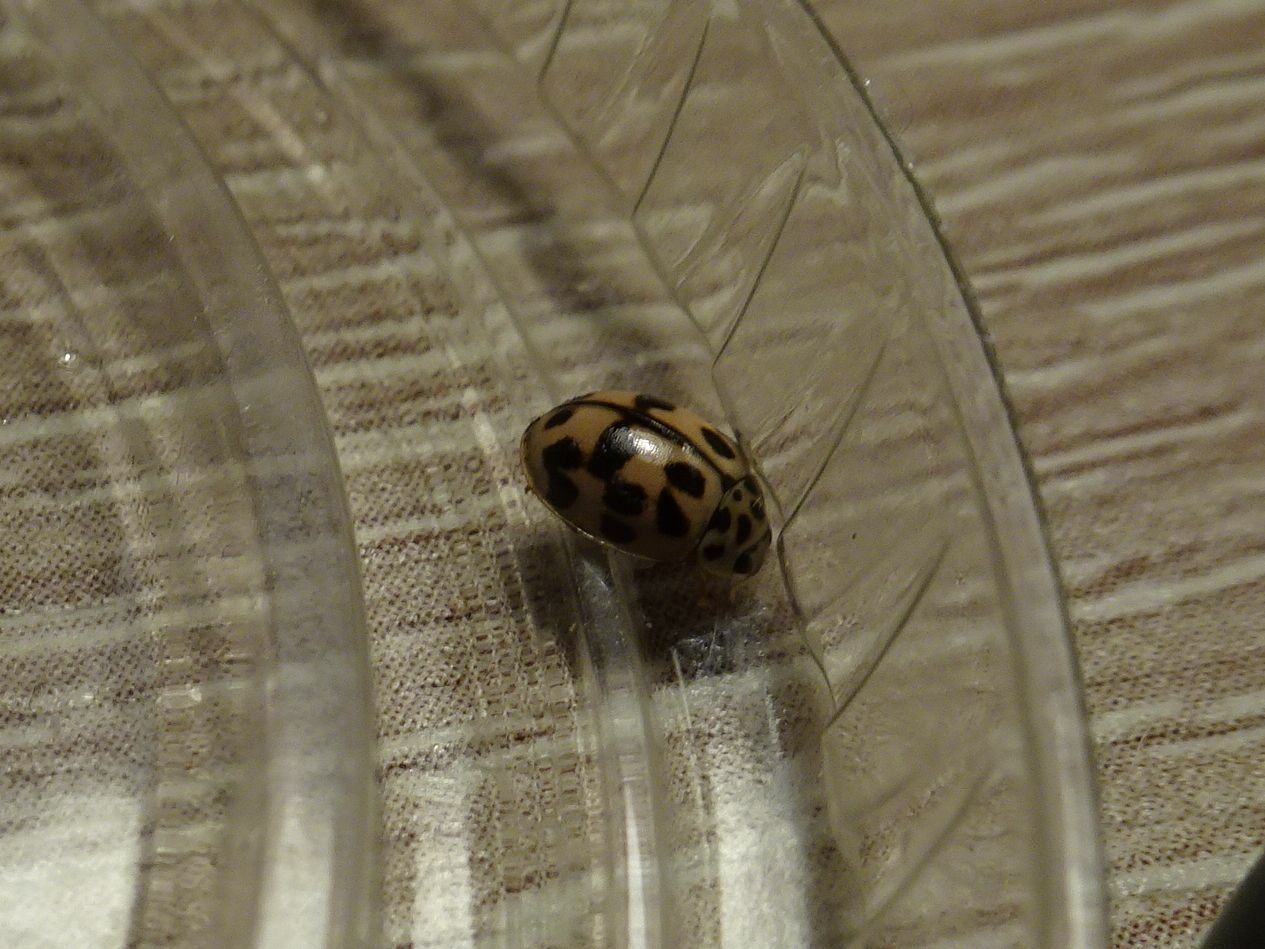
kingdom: Animalia
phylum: Arthropoda
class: Insecta
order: Coleoptera
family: Coccinellidae
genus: Oenopia
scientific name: Oenopia conglobata
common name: Ladybird beetle
